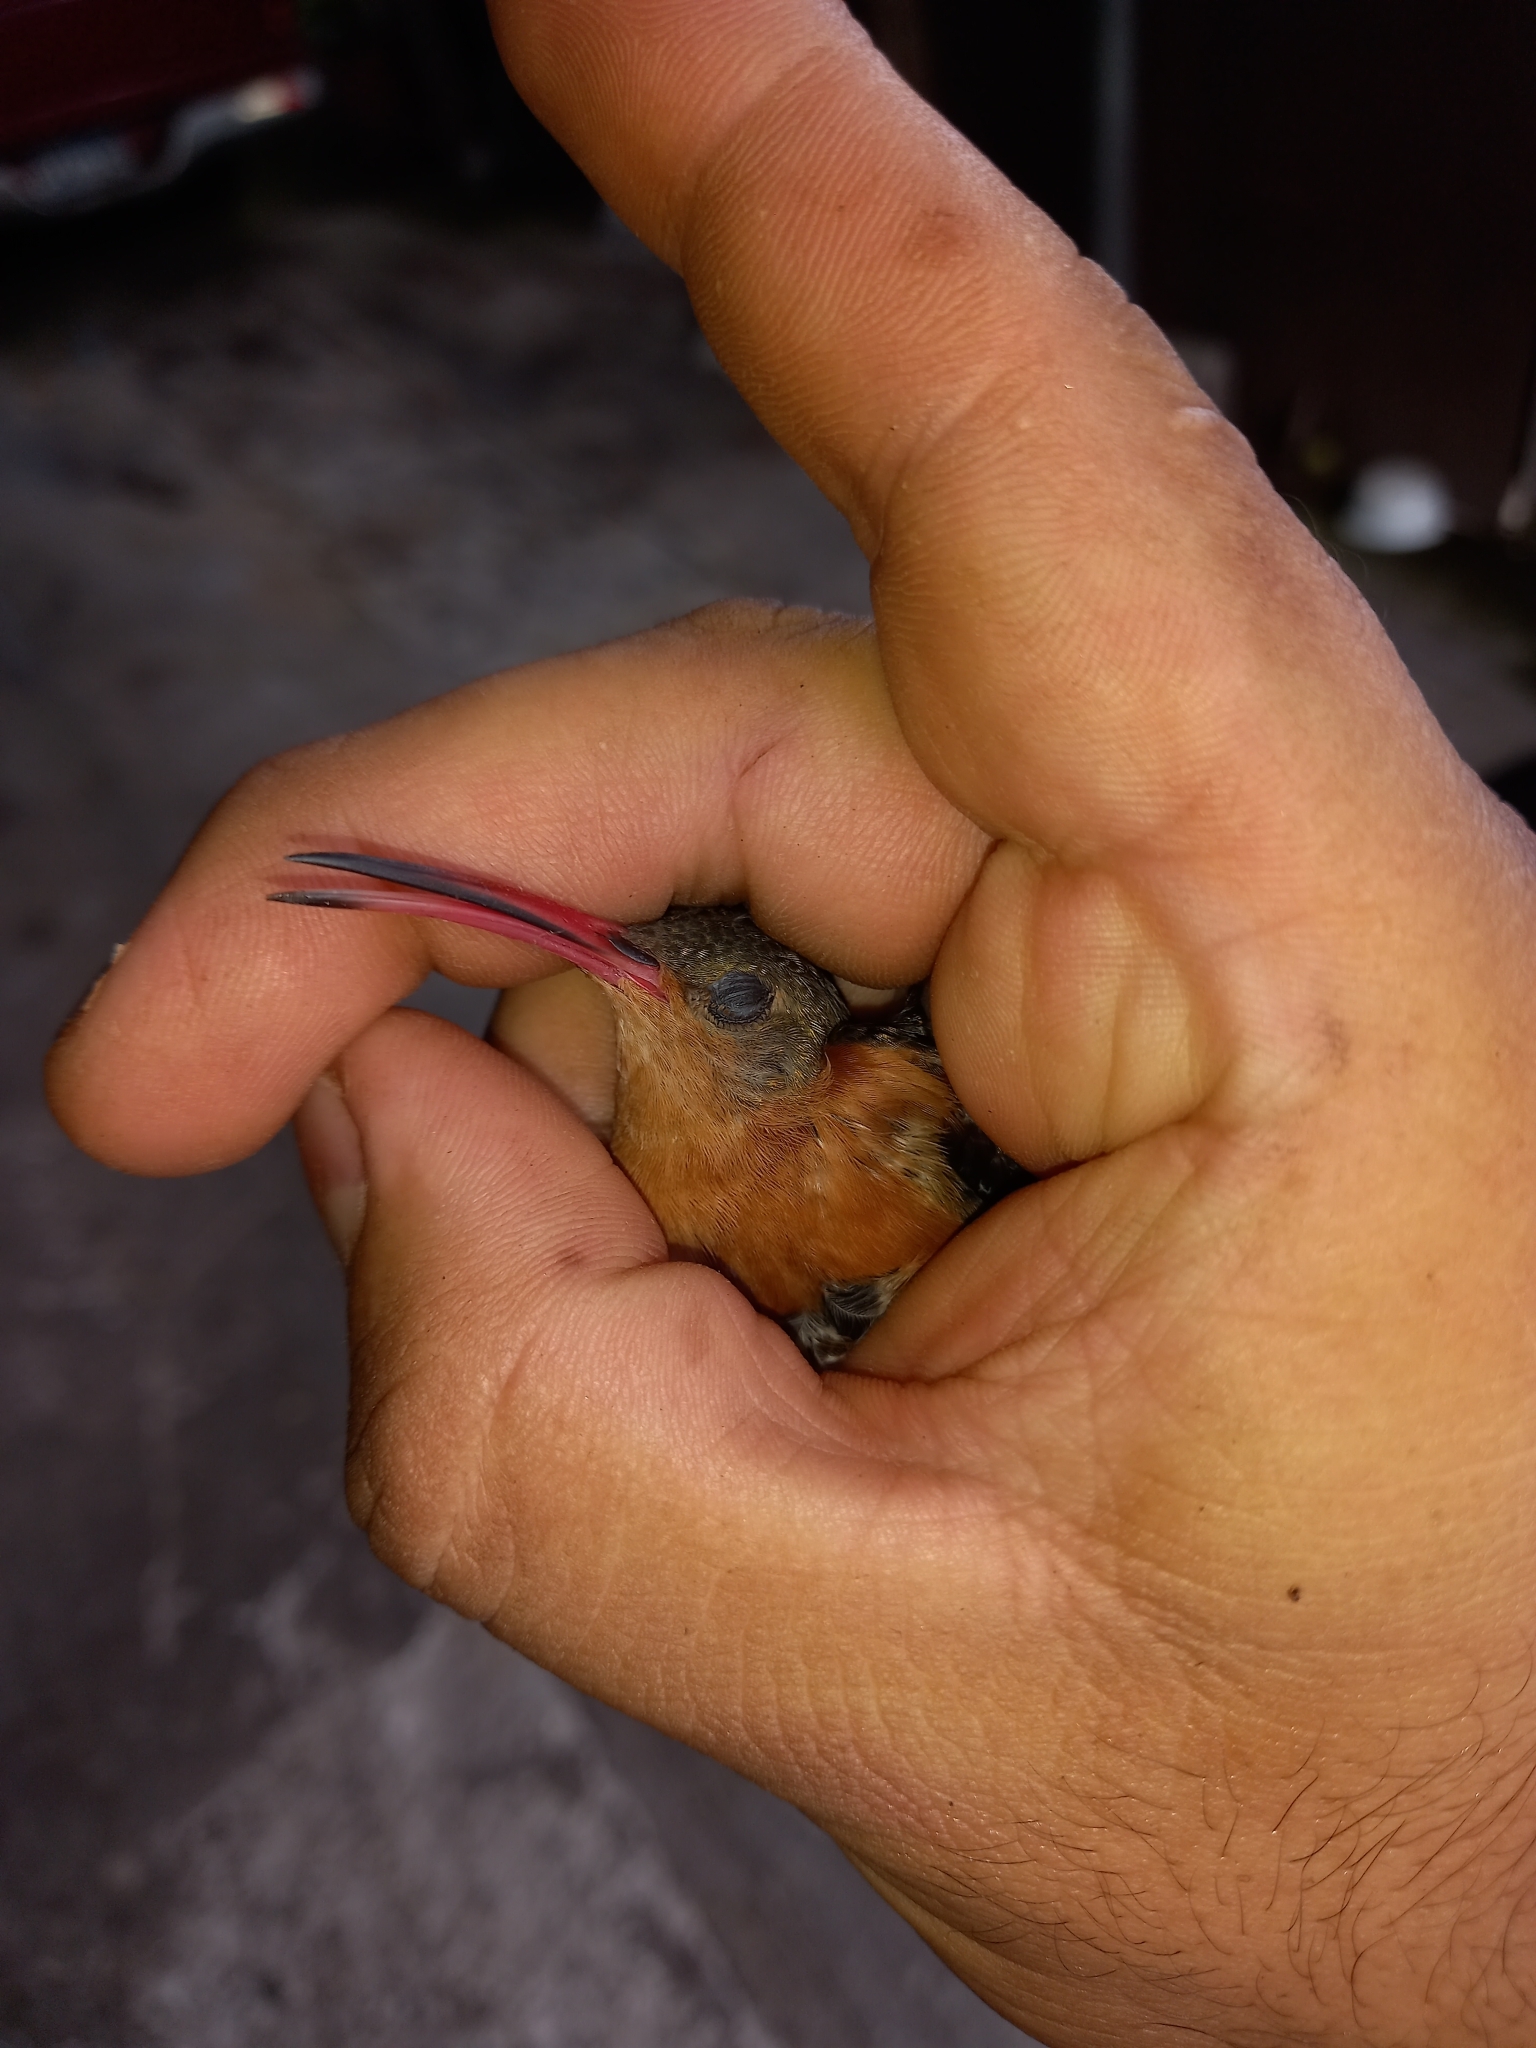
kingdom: Animalia
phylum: Chordata
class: Aves
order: Apodiformes
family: Trochilidae
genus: Amazilia
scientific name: Amazilia rutila
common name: Cinnamon hummingbird
